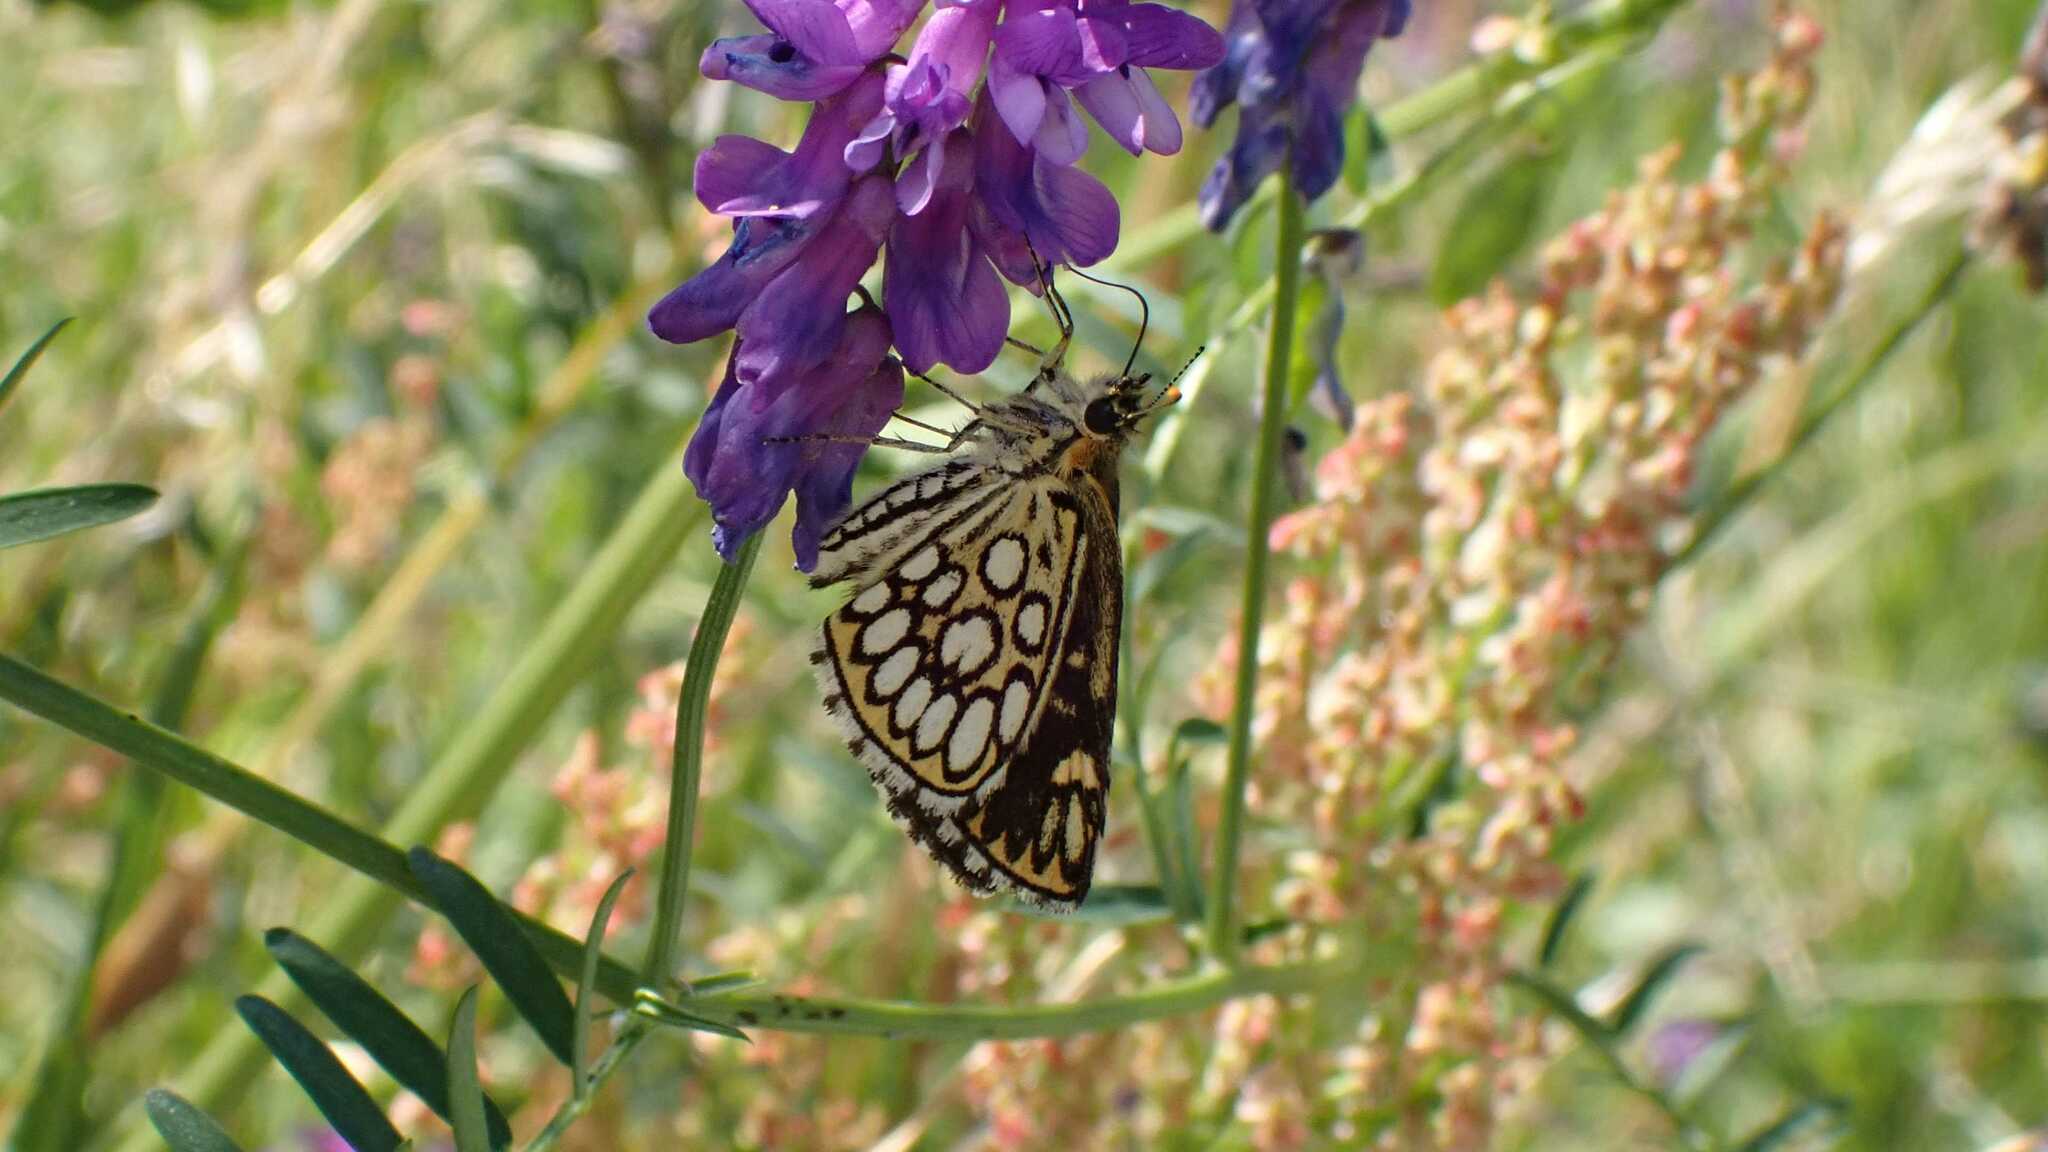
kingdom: Animalia
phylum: Arthropoda
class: Insecta
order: Lepidoptera
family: Hesperiidae
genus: Heteropterus
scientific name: Heteropterus morpheus
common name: Large chequered skipper
